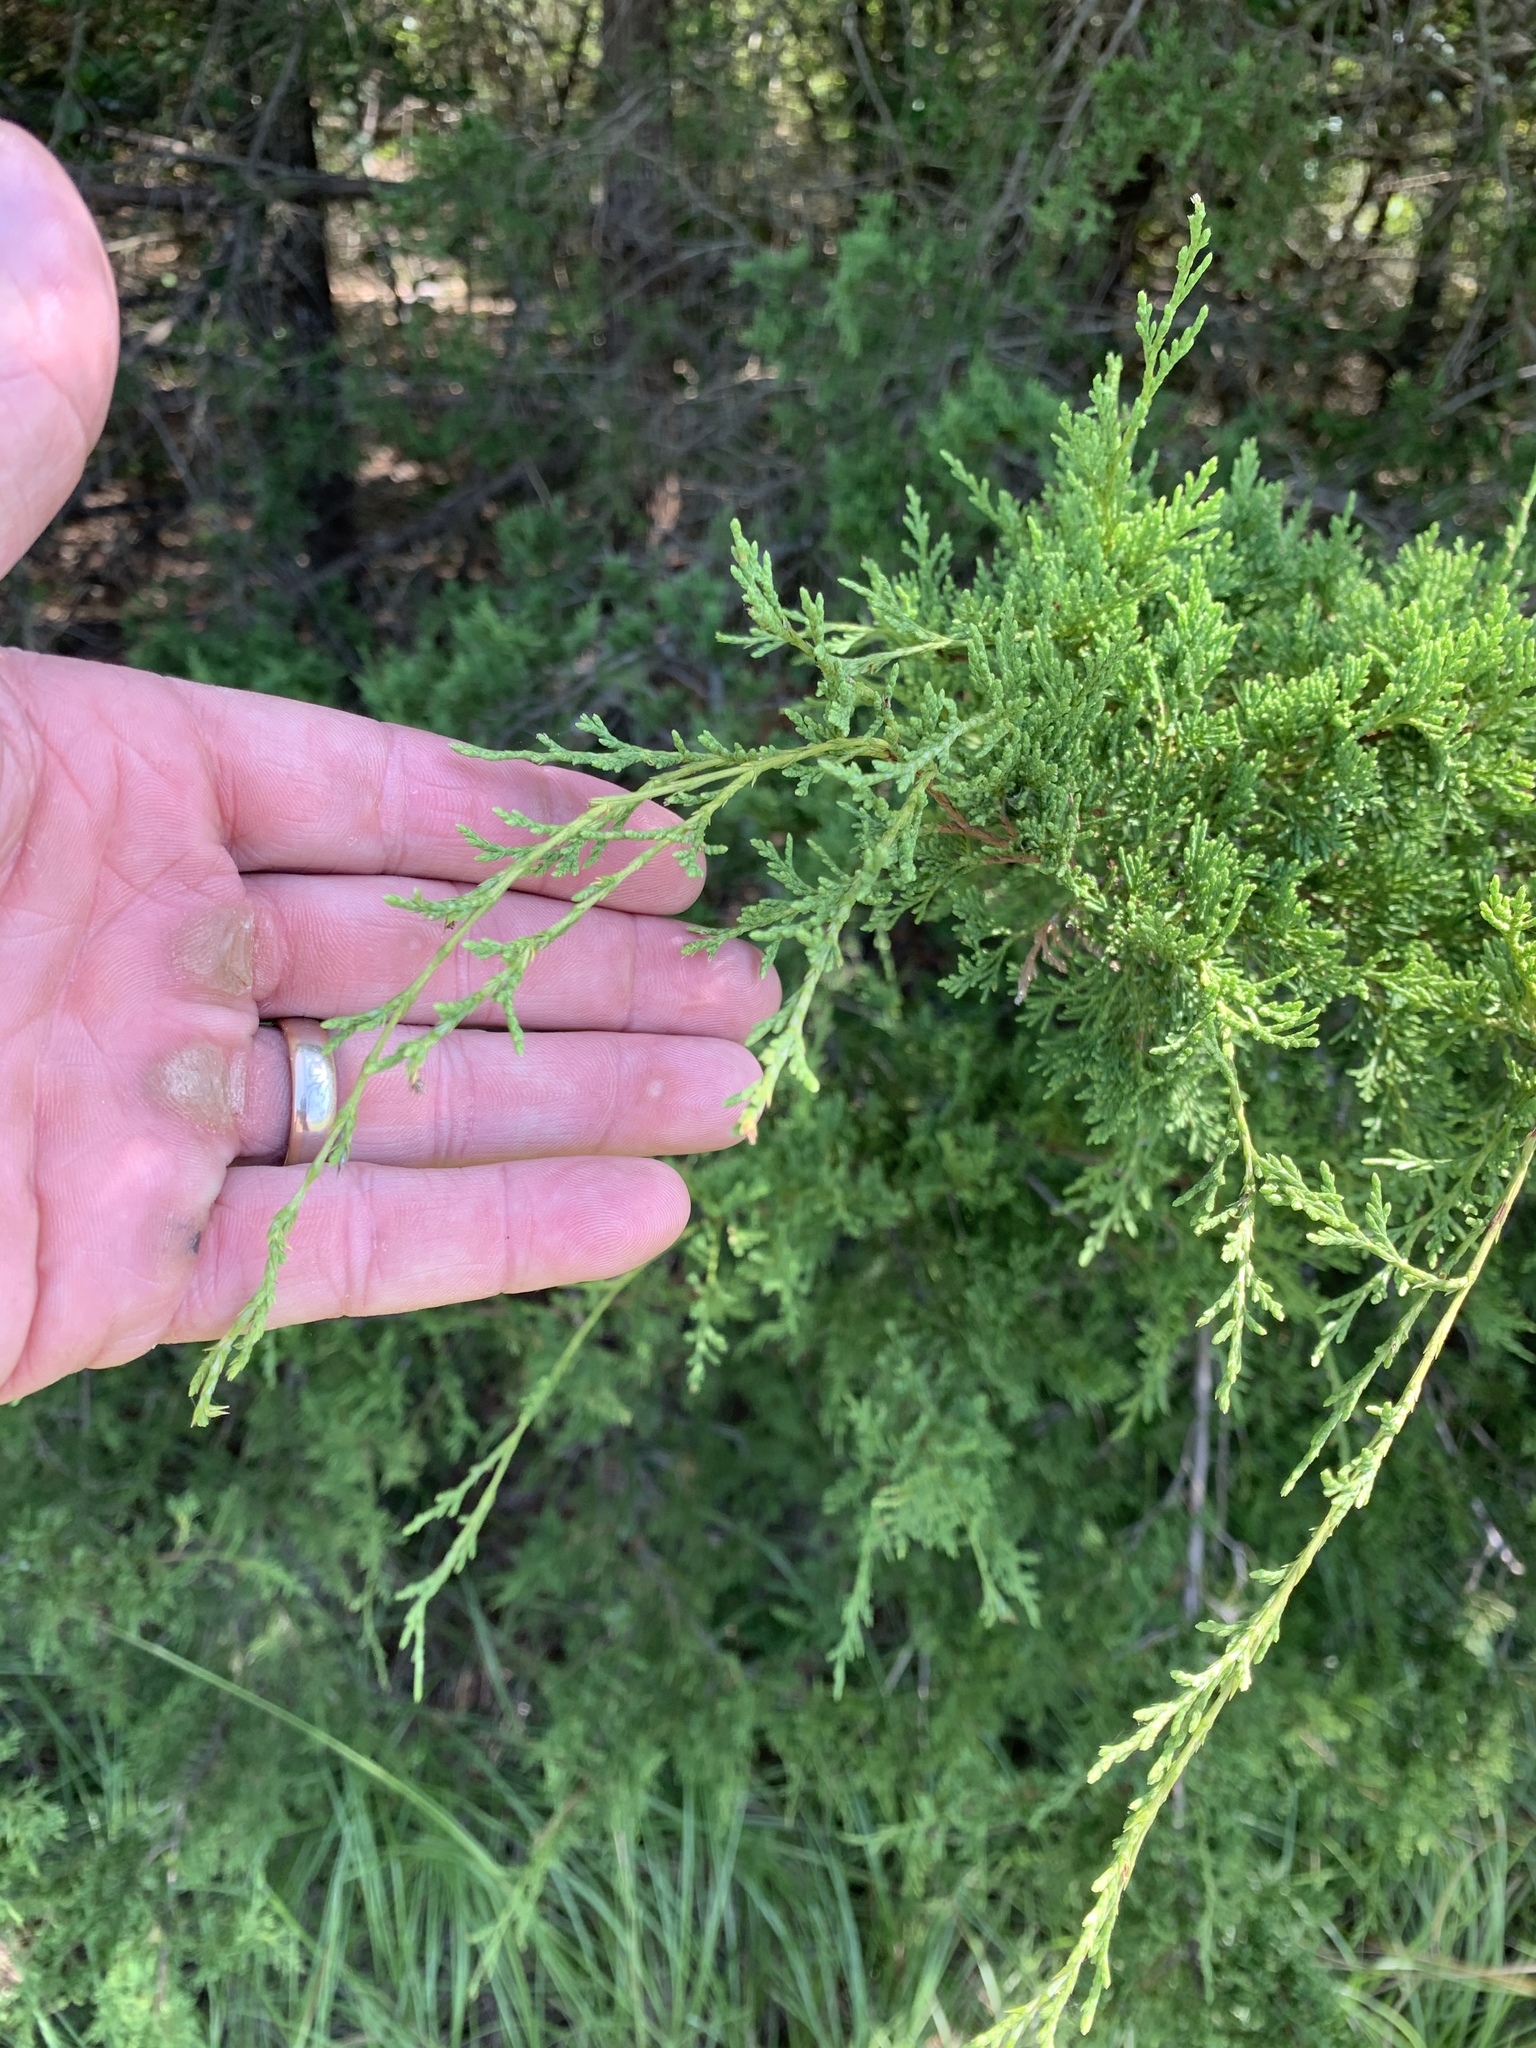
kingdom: Plantae
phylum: Tracheophyta
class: Pinopsida
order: Pinales
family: Cupressaceae
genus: Juniperus
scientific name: Juniperus virginiana
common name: Red juniper
